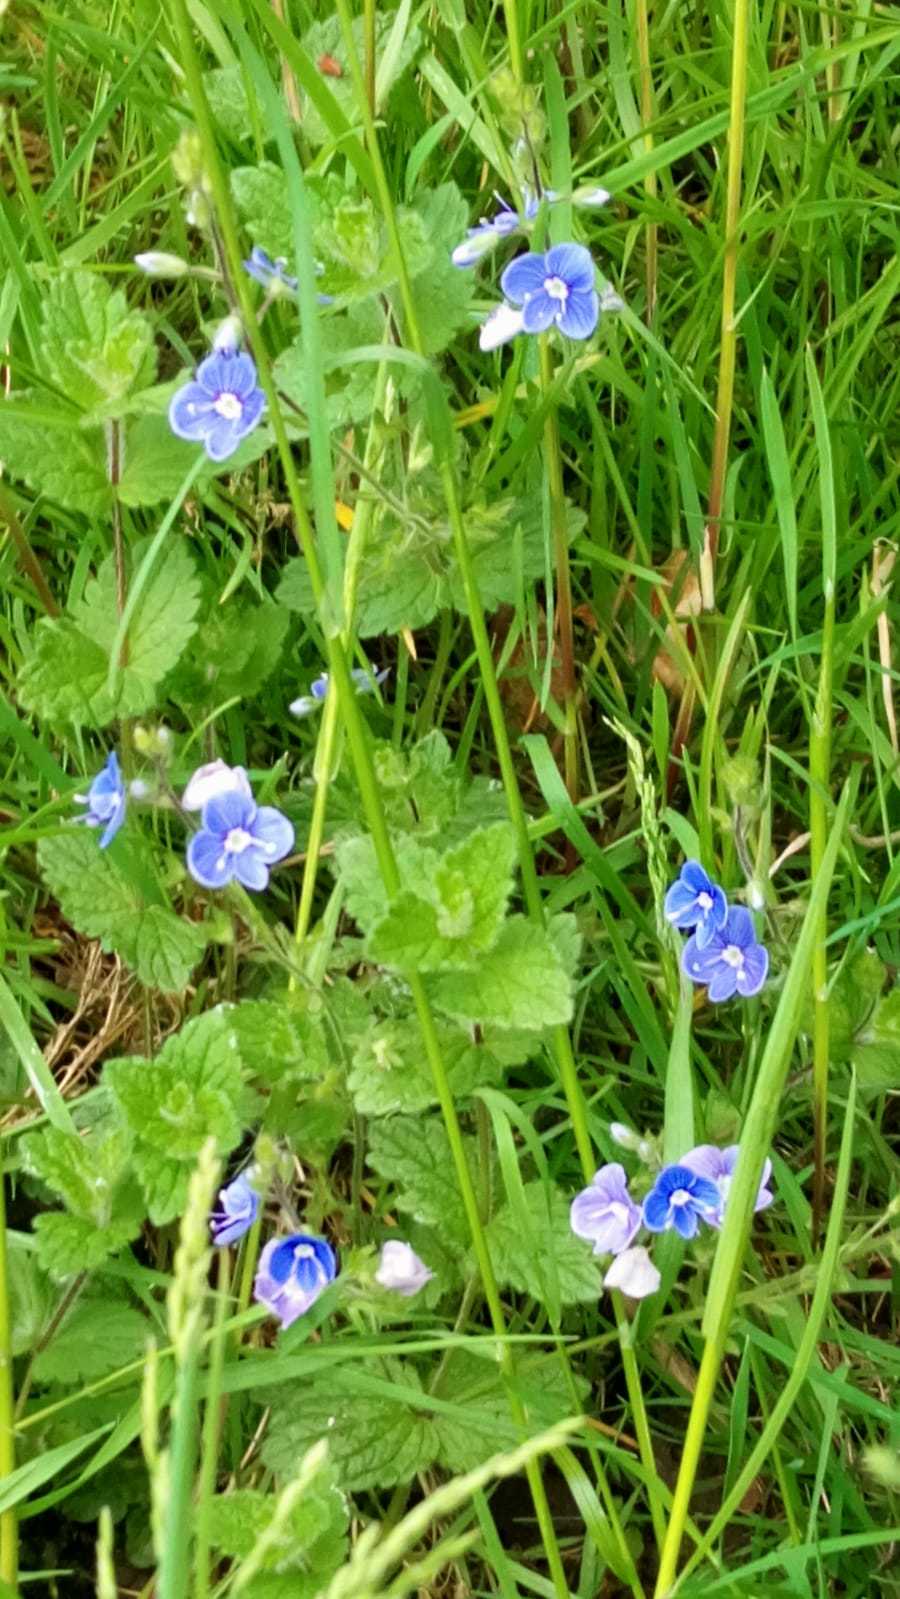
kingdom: Plantae
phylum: Tracheophyta
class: Magnoliopsida
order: Lamiales
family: Plantaginaceae
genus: Veronica
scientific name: Veronica chamaedrys
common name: Germander speedwell
